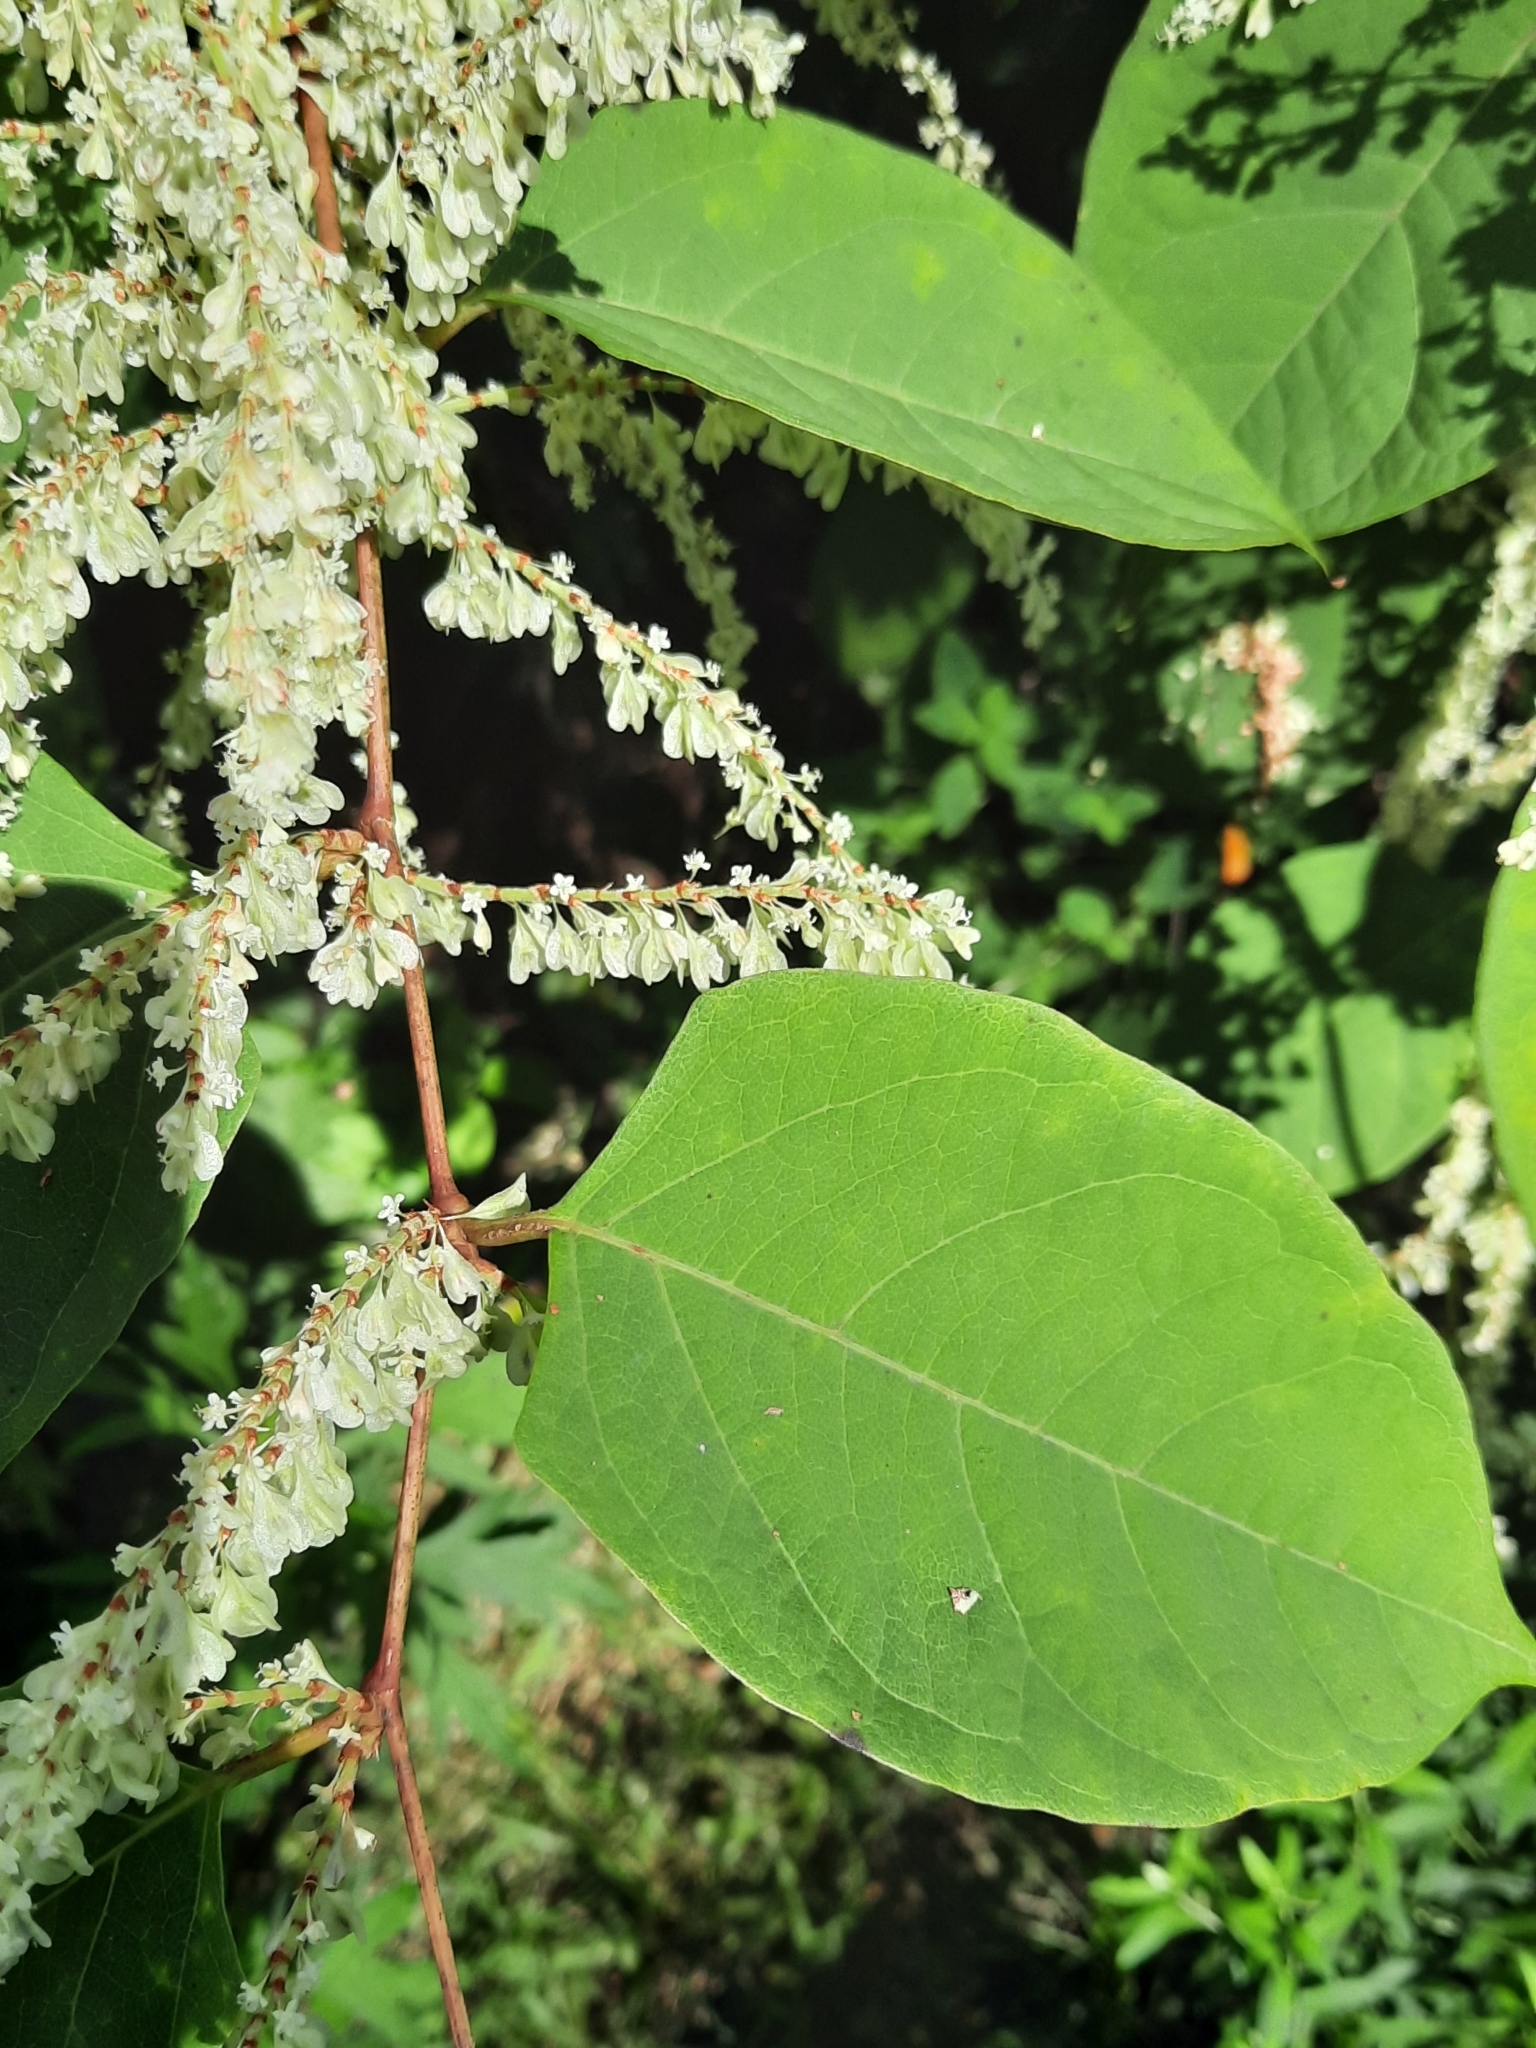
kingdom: Plantae
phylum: Tracheophyta
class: Magnoliopsida
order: Caryophyllales
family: Polygonaceae
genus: Reynoutria
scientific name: Reynoutria japonica
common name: Japanese knotweed
